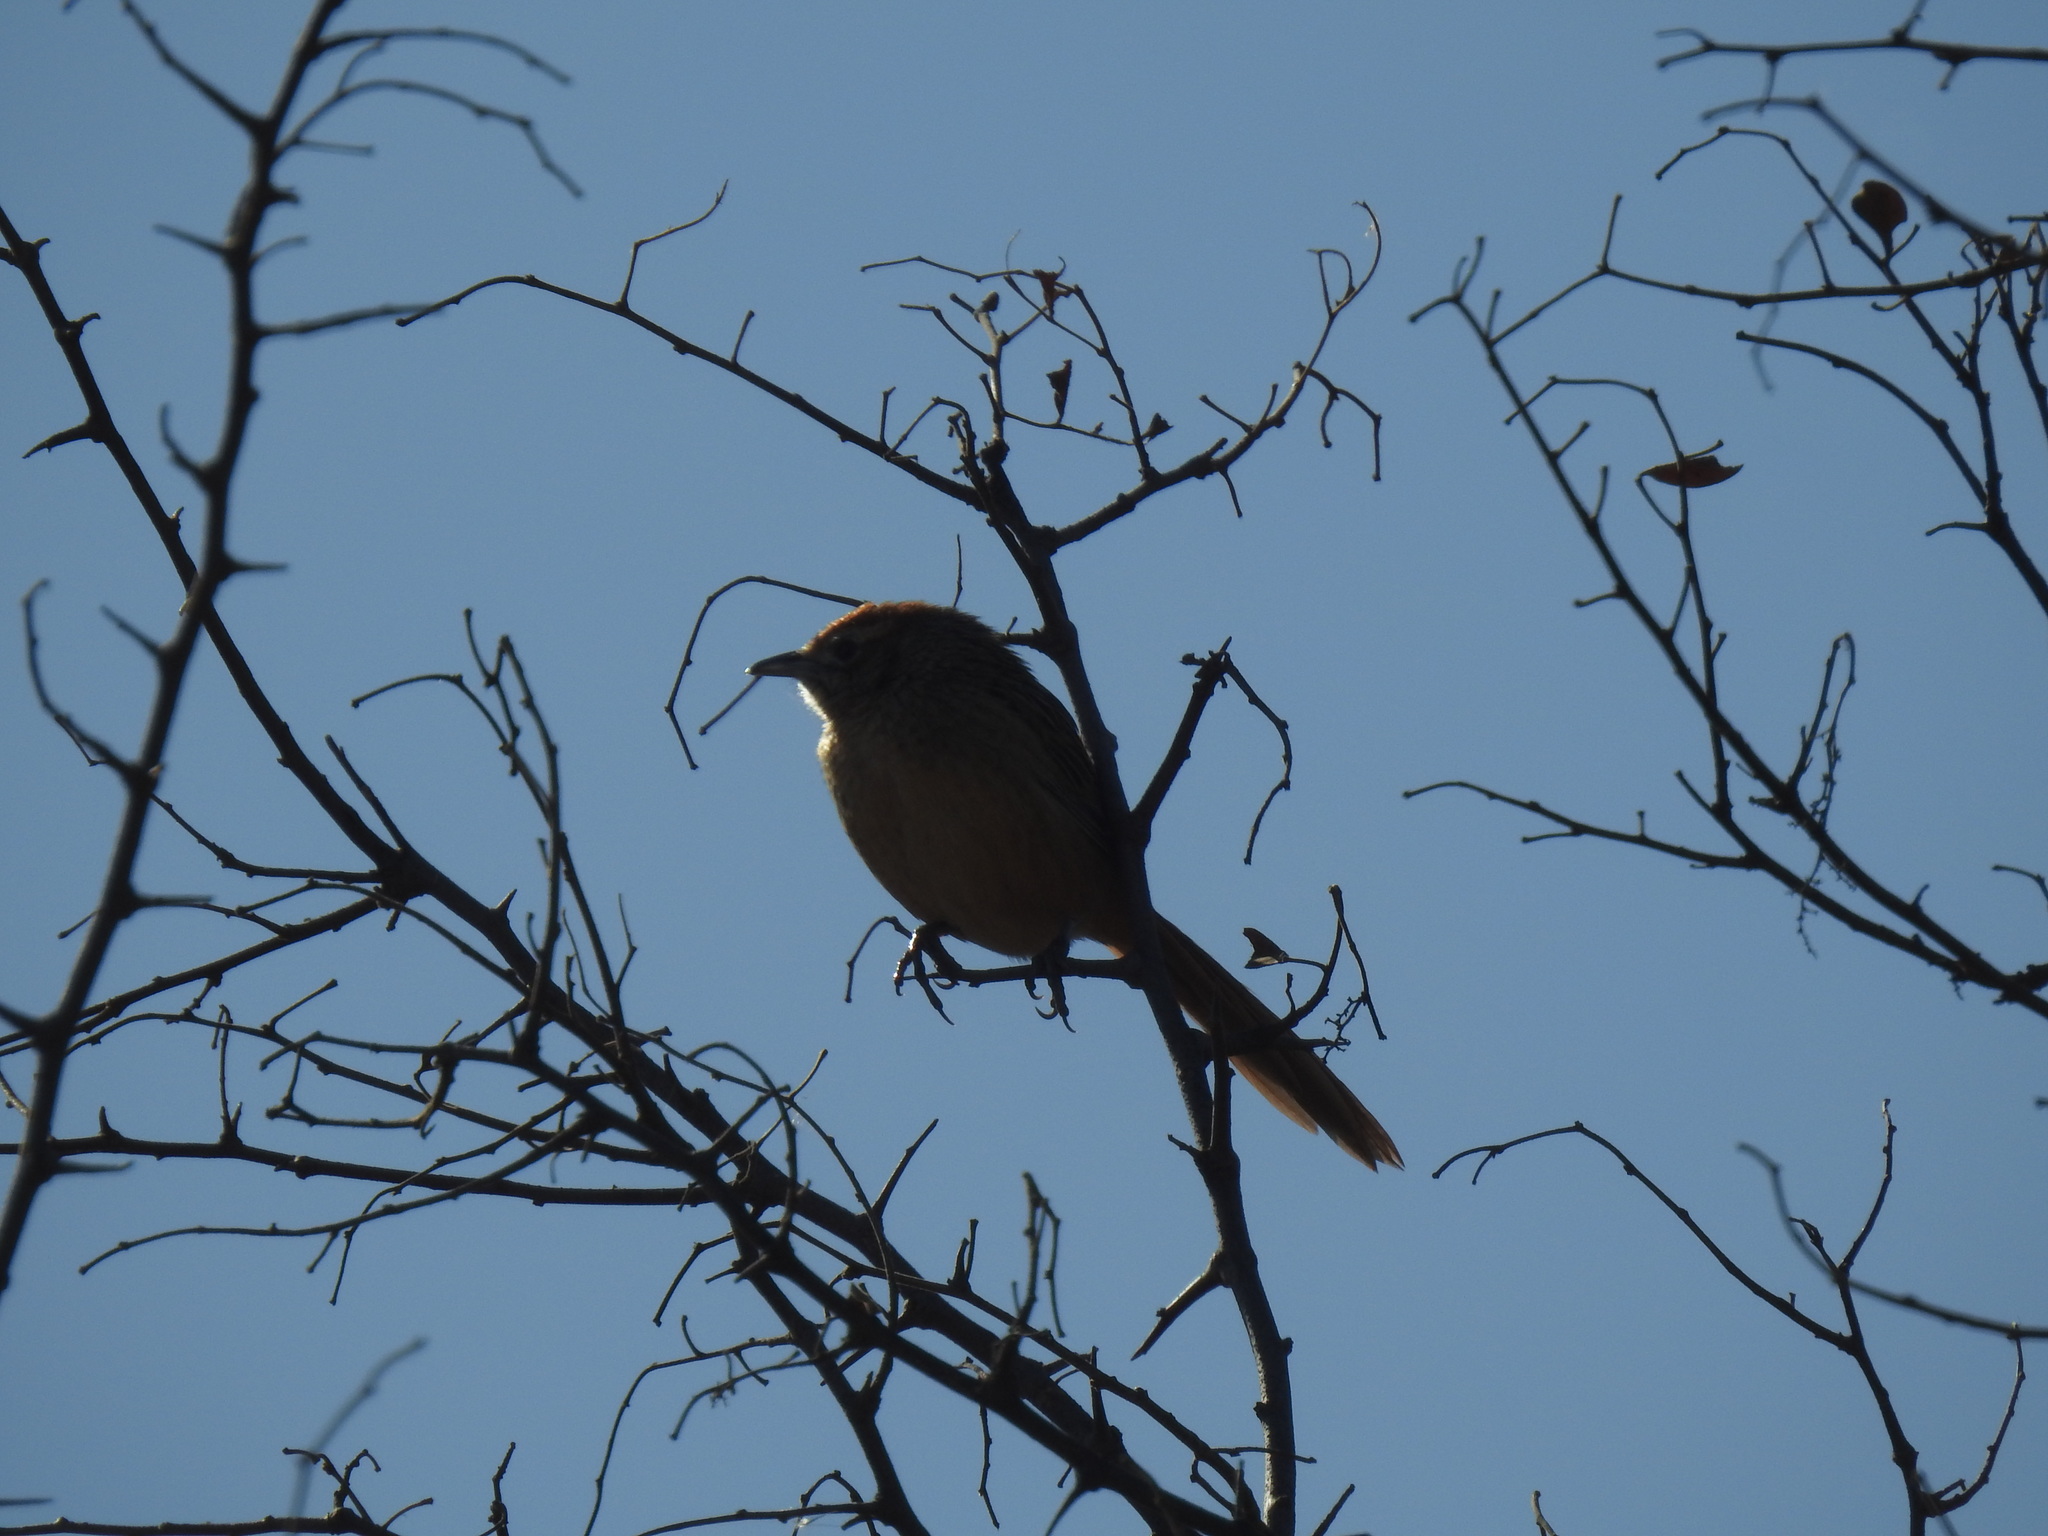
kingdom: Animalia
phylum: Chordata
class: Aves
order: Passeriformes
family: Macrosphenidae
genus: Sphenoeacus
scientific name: Sphenoeacus afer
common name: Cape grassbird
